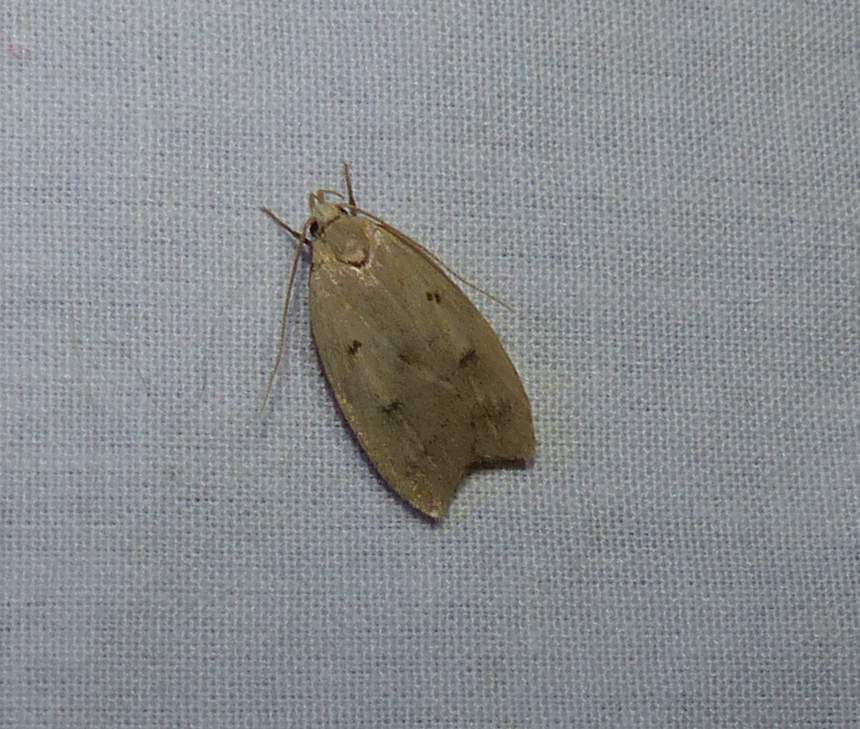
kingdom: Animalia
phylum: Arthropoda
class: Insecta
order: Lepidoptera
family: Peleopodidae
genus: Machimia
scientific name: Machimia tentoriferella
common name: Gold-striped leaftier moth
